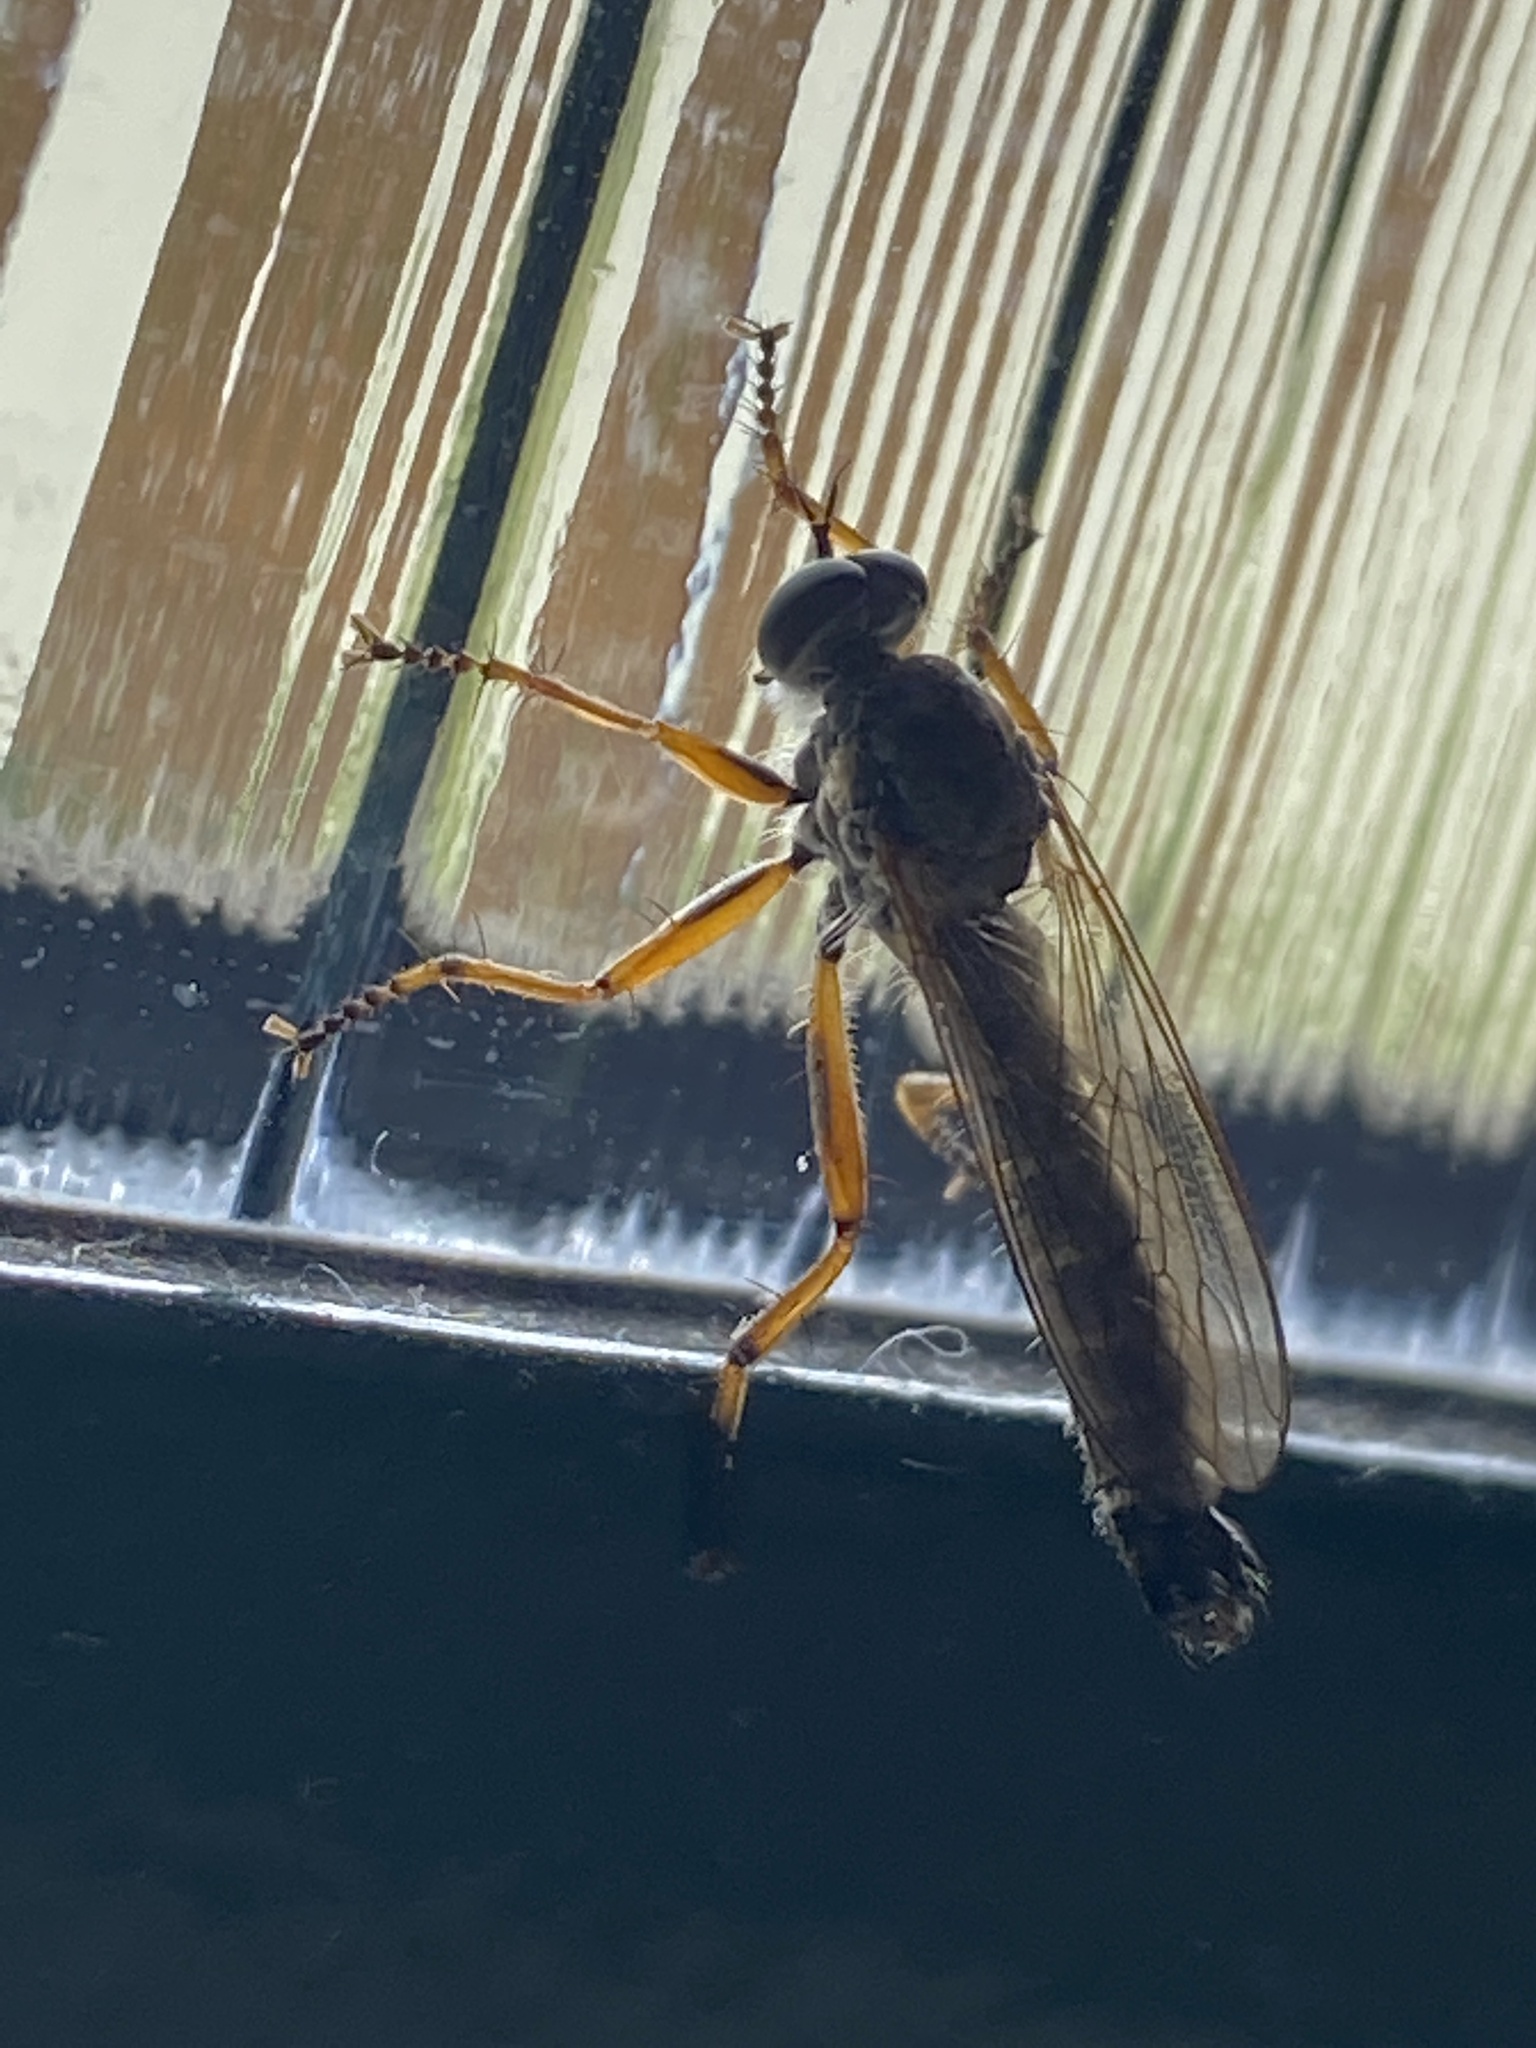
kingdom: Animalia
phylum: Arthropoda
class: Insecta
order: Diptera
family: Asilidae
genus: Neomochtherus
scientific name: Neomochtherus pallipes
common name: Devon red-legged robberfly
